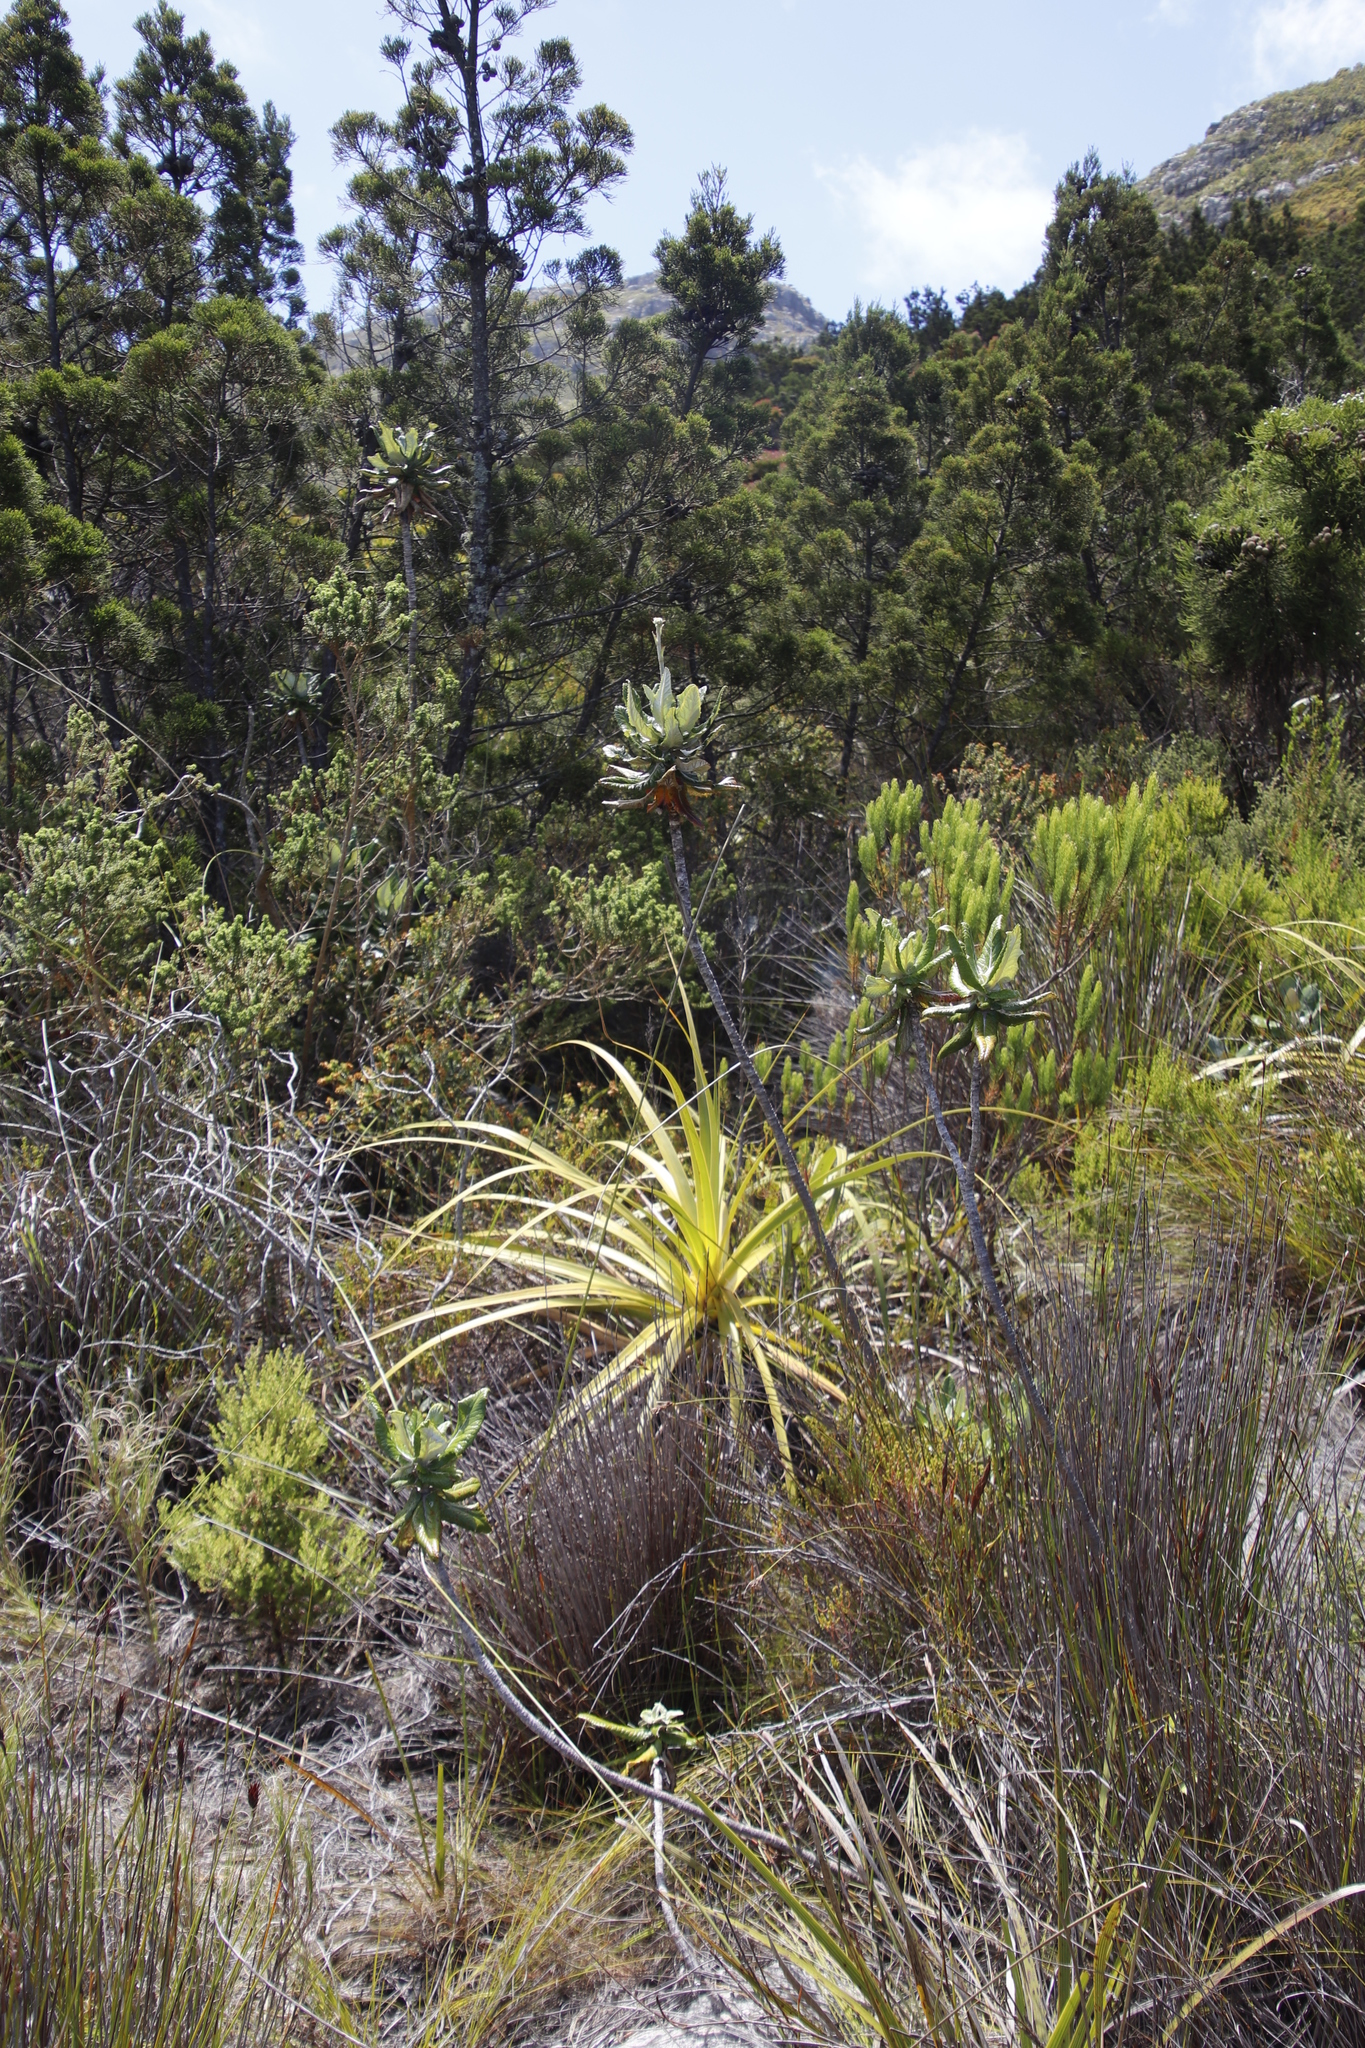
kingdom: Plantae
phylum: Tracheophyta
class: Magnoliopsida
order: Apiales
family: Apiaceae
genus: Hermas
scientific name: Hermas villosa
